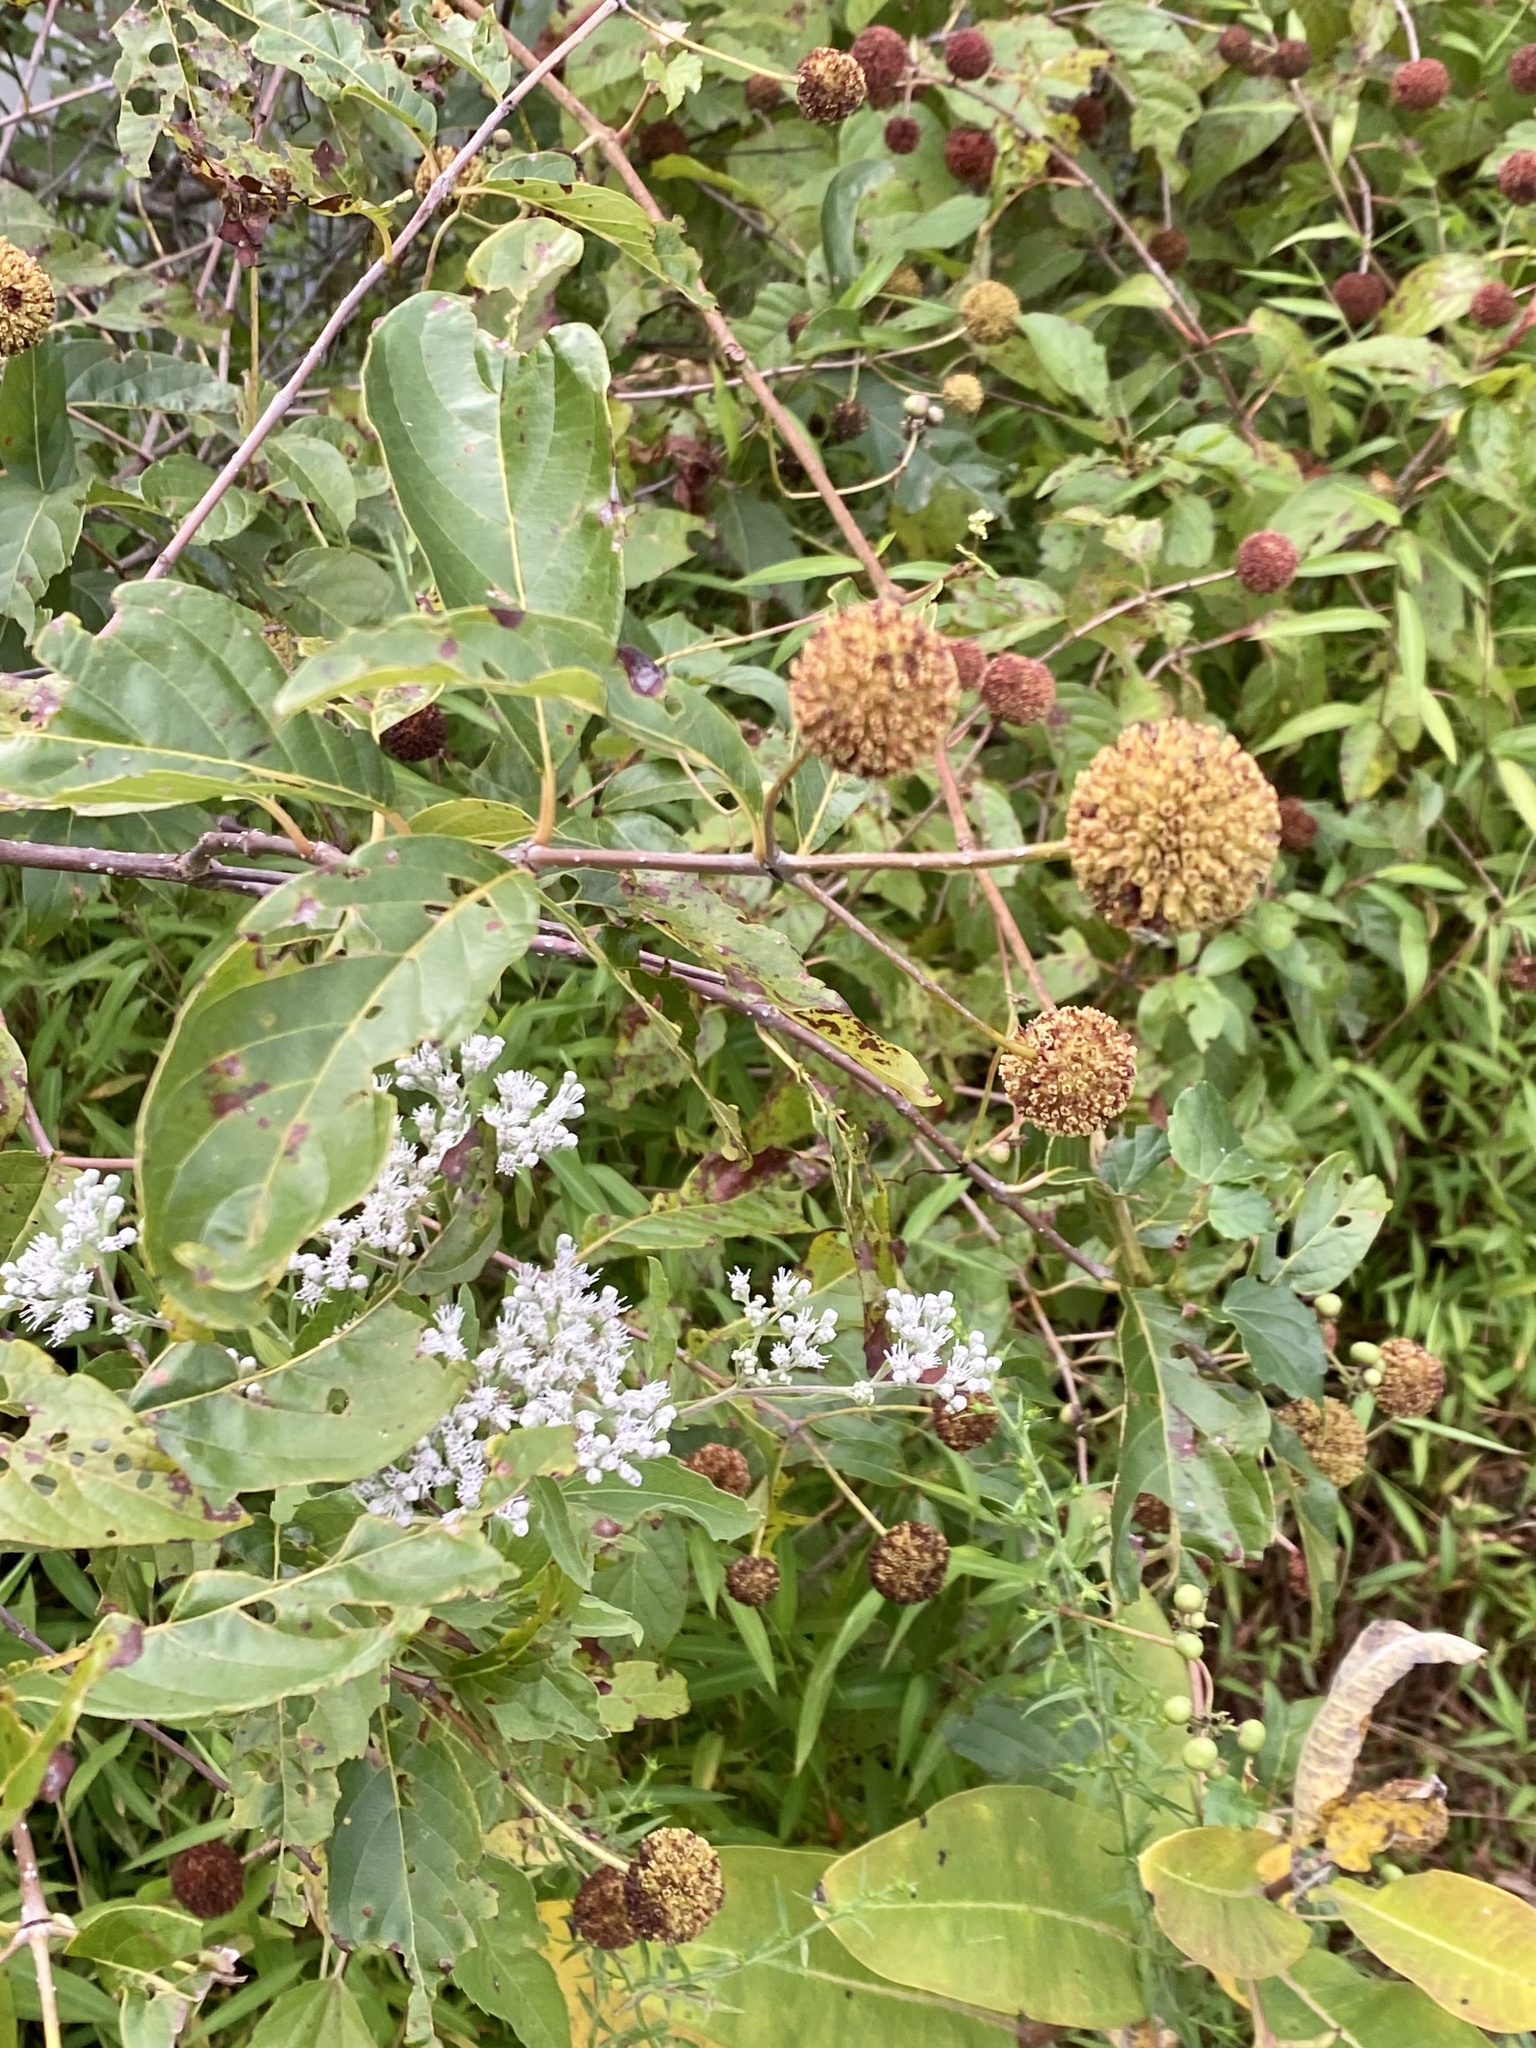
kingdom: Plantae
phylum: Tracheophyta
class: Magnoliopsida
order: Gentianales
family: Rubiaceae
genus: Cephalanthus
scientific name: Cephalanthus occidentalis
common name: Button-willow
